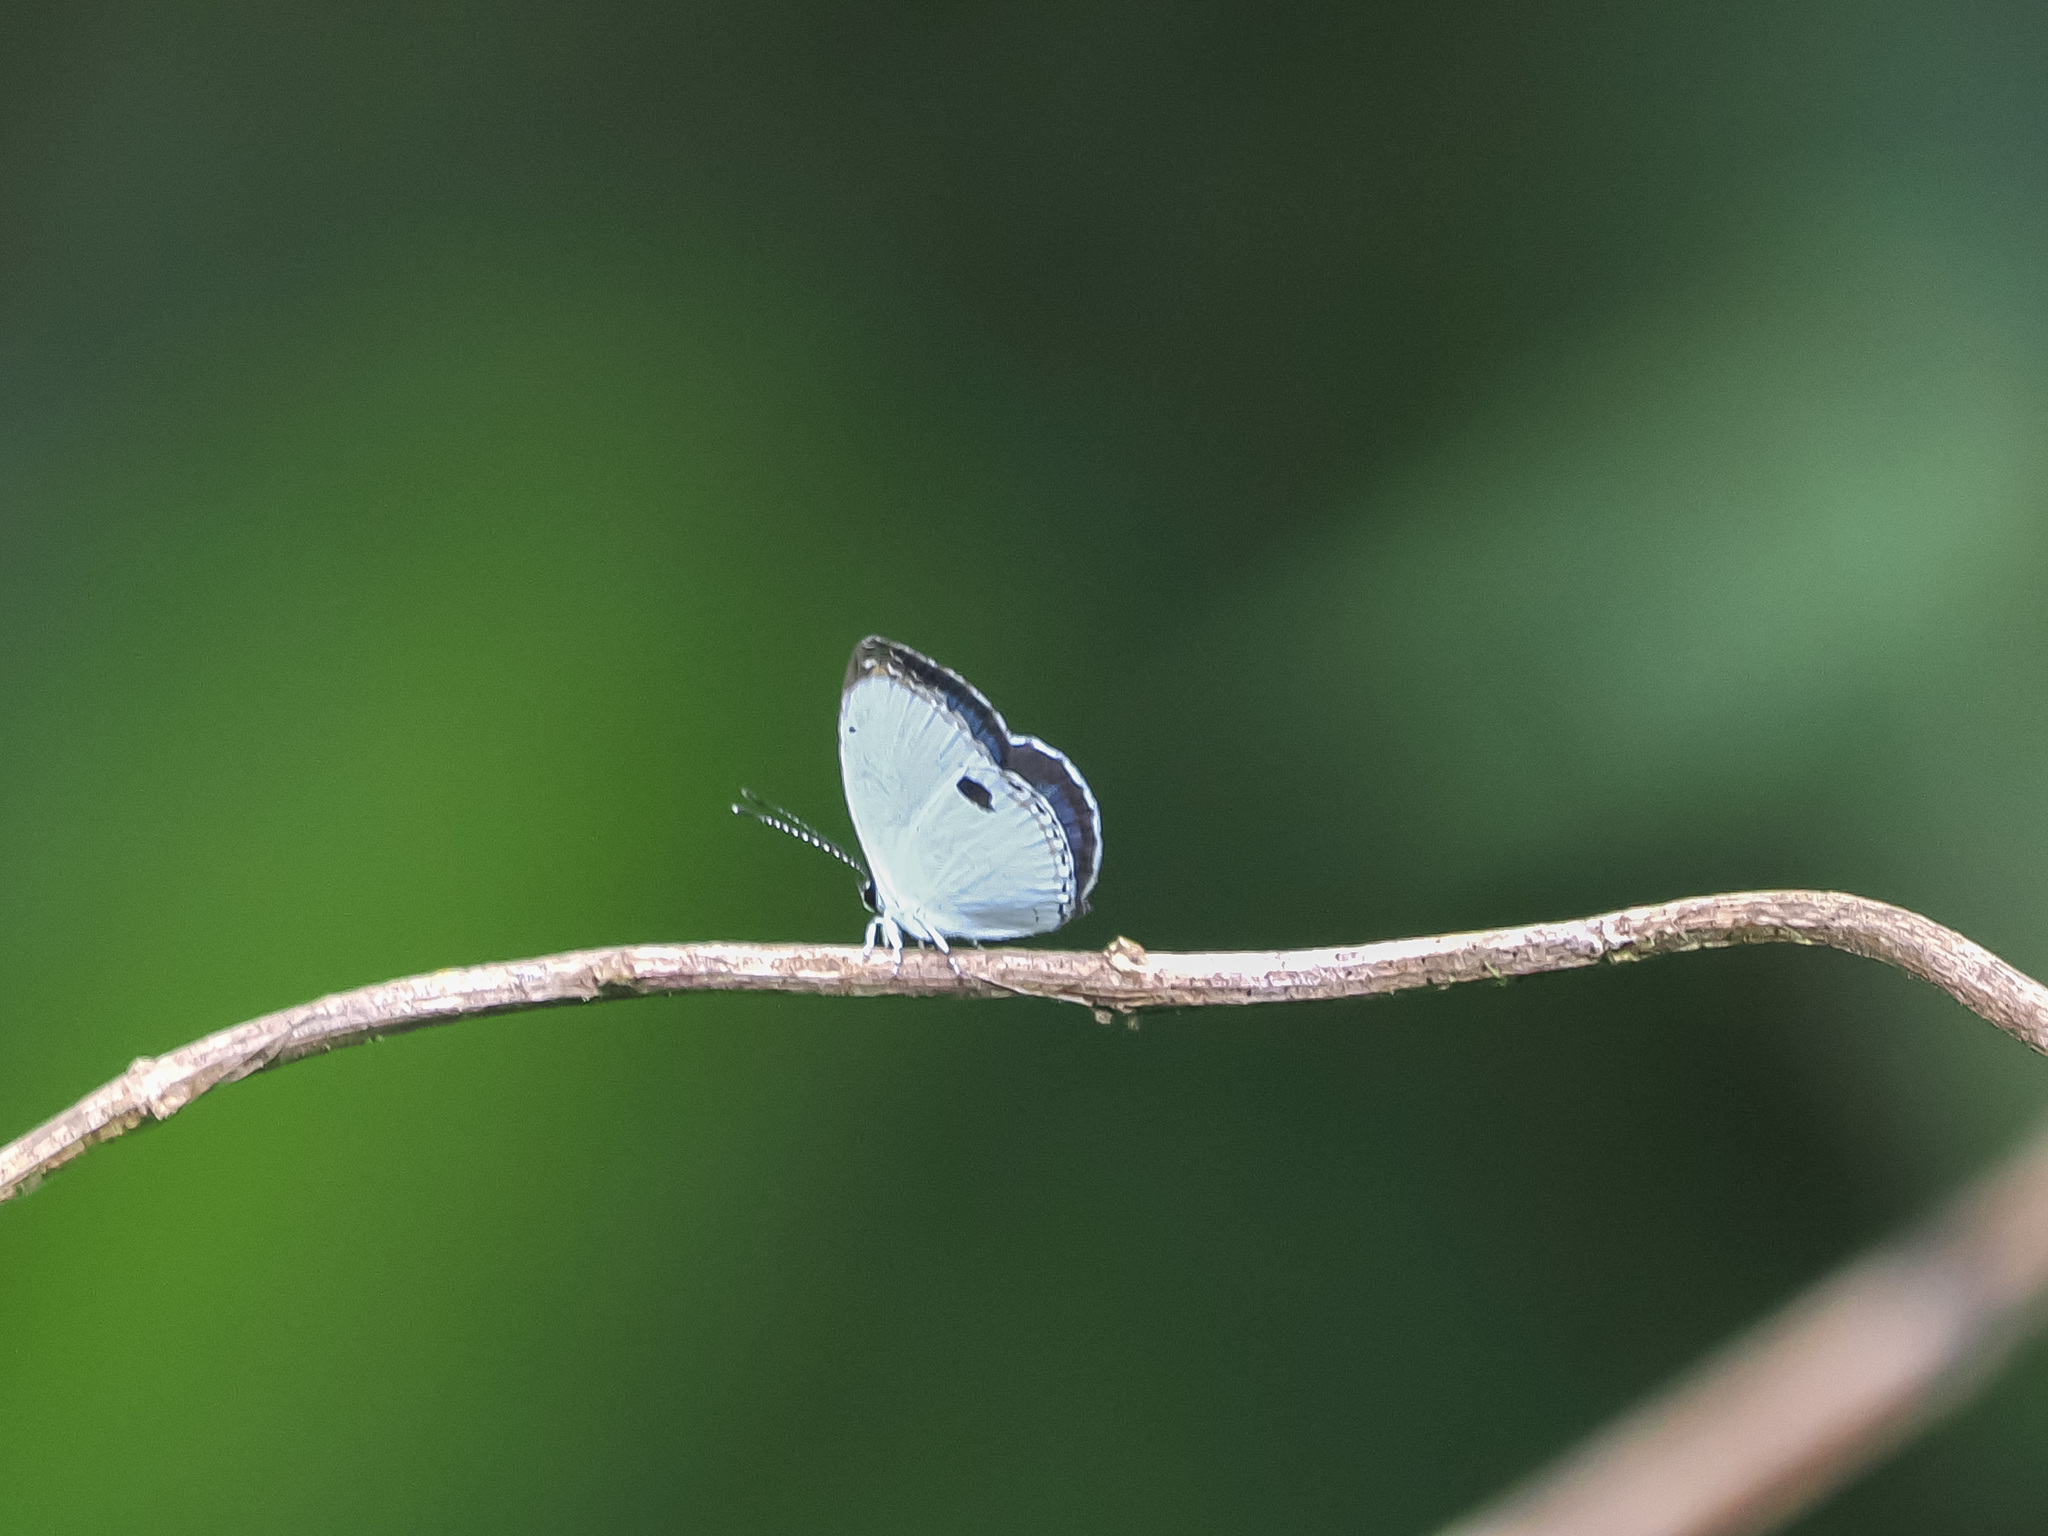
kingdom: Animalia
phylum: Arthropoda
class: Insecta
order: Lepidoptera
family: Lycaenidae
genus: Petrelaea
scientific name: Petrelaea mariae
